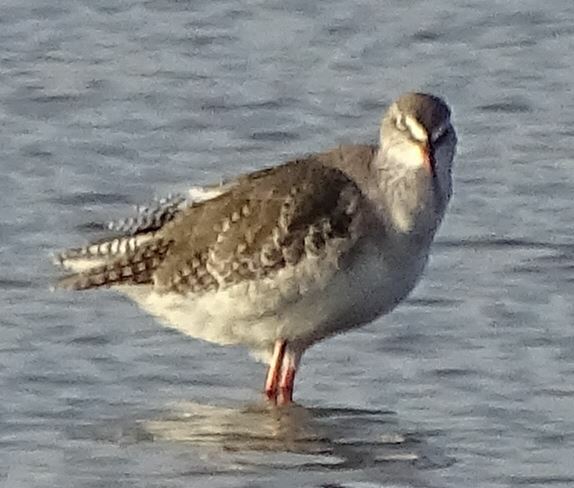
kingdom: Animalia
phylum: Chordata
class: Aves
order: Charadriiformes
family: Scolopacidae
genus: Tringa
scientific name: Tringa erythropus
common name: Spotted redshank
